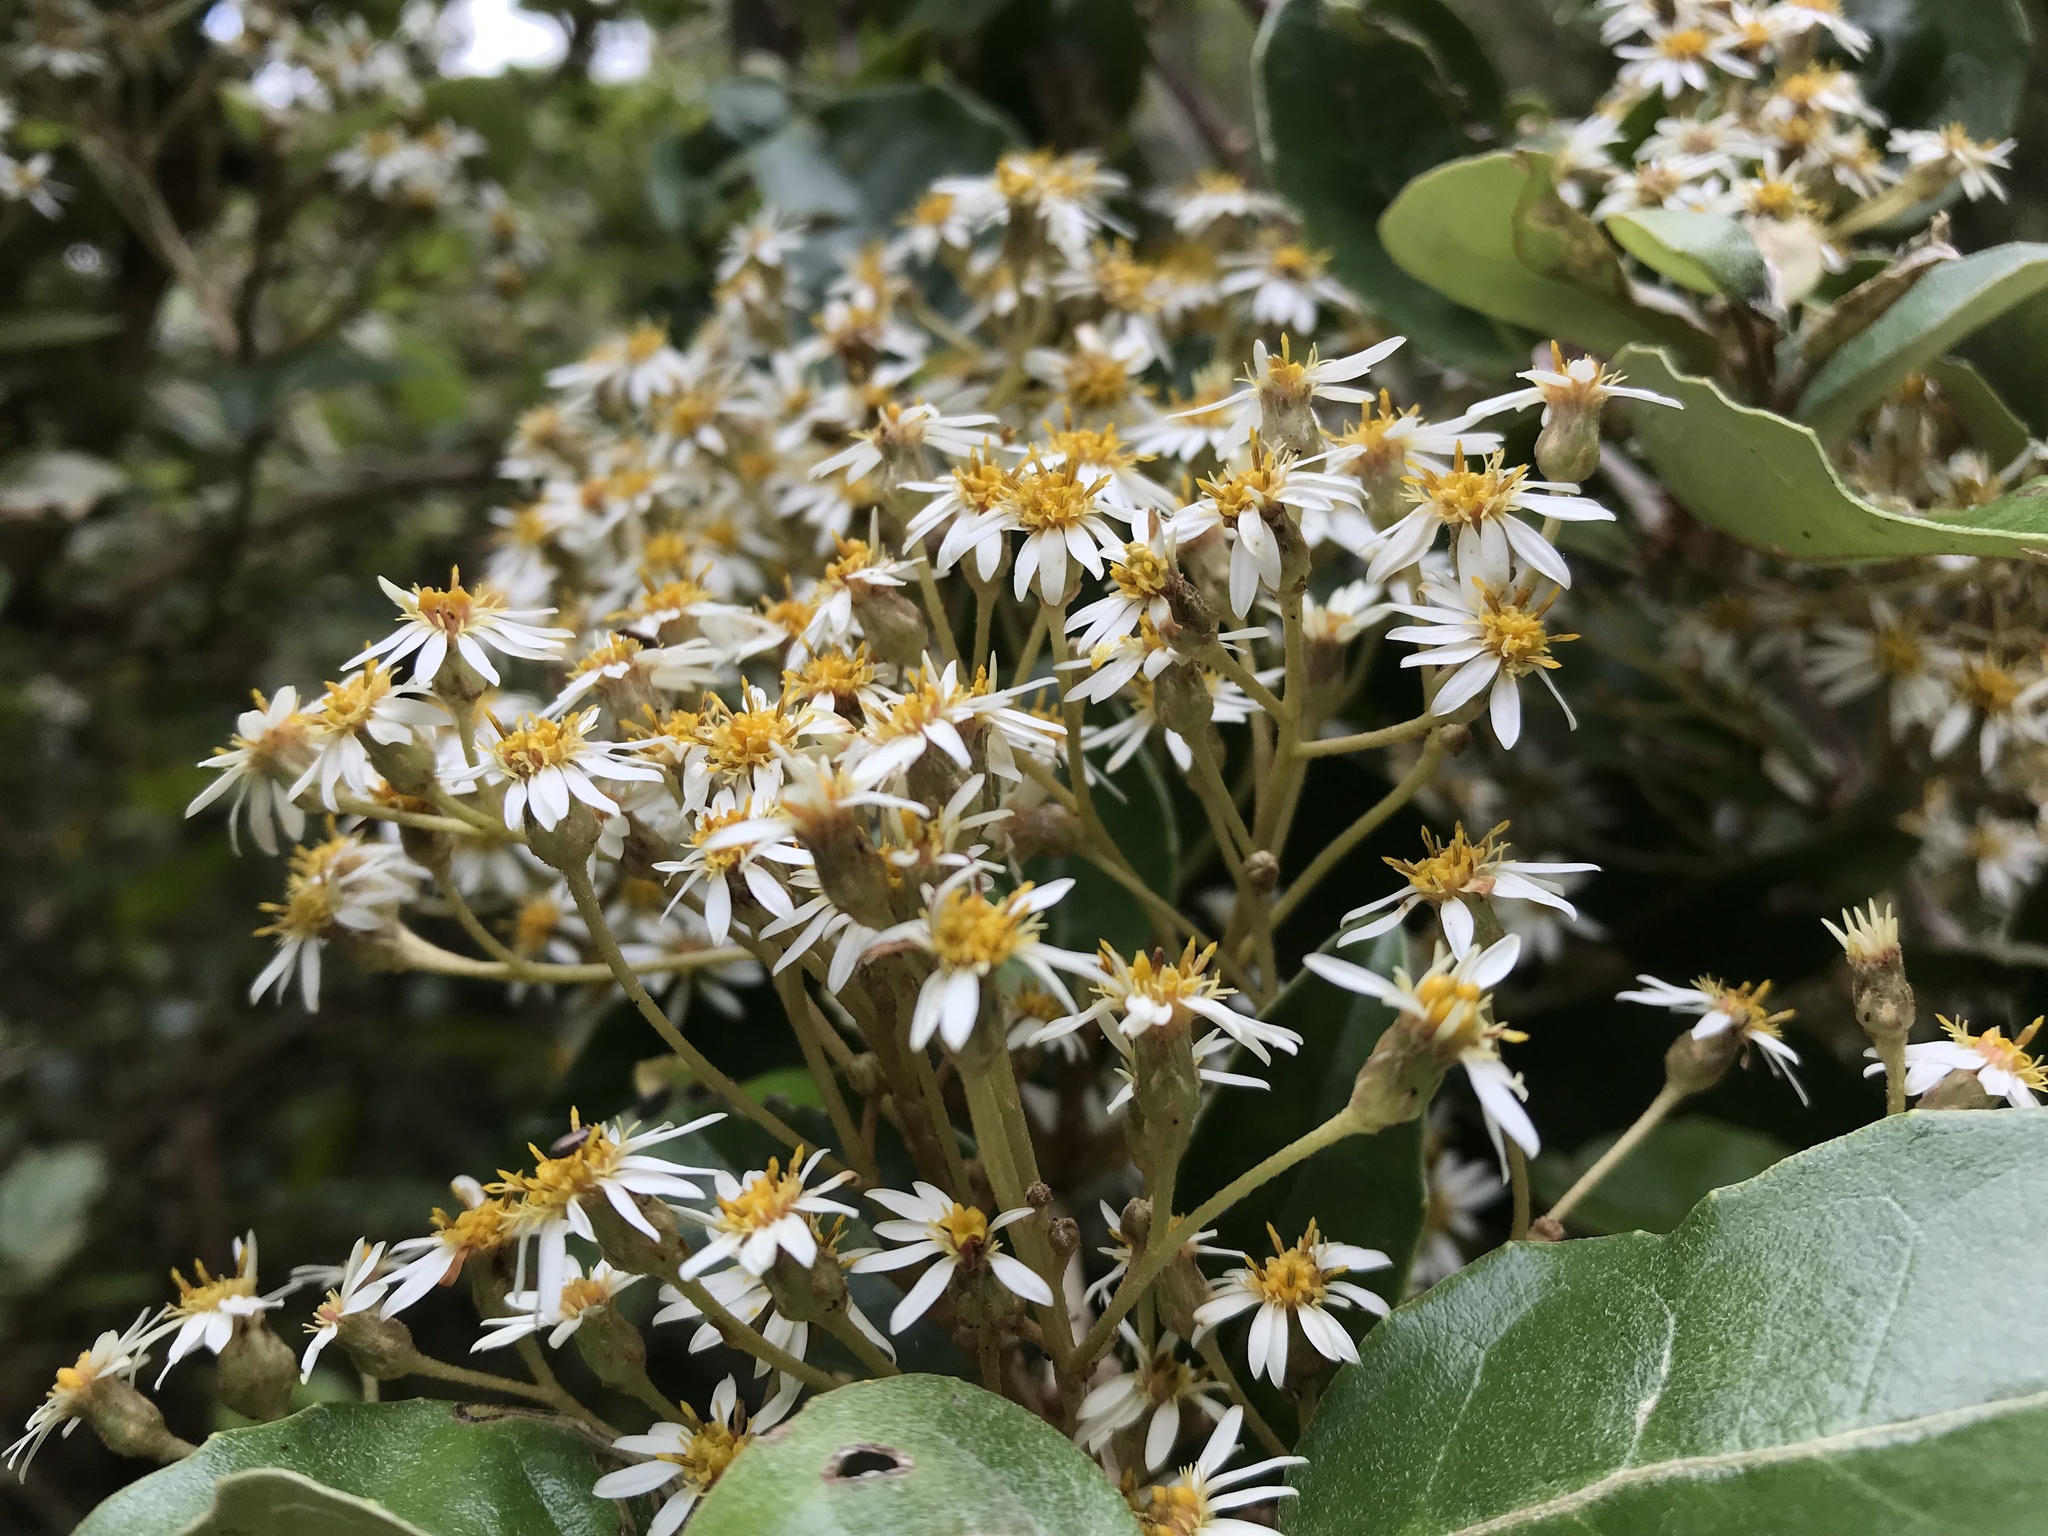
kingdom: Plantae
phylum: Tracheophyta
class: Magnoliopsida
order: Asterales
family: Asteraceae
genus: Olearia
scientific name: Olearia arborescens
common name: Glossy tree daisy
